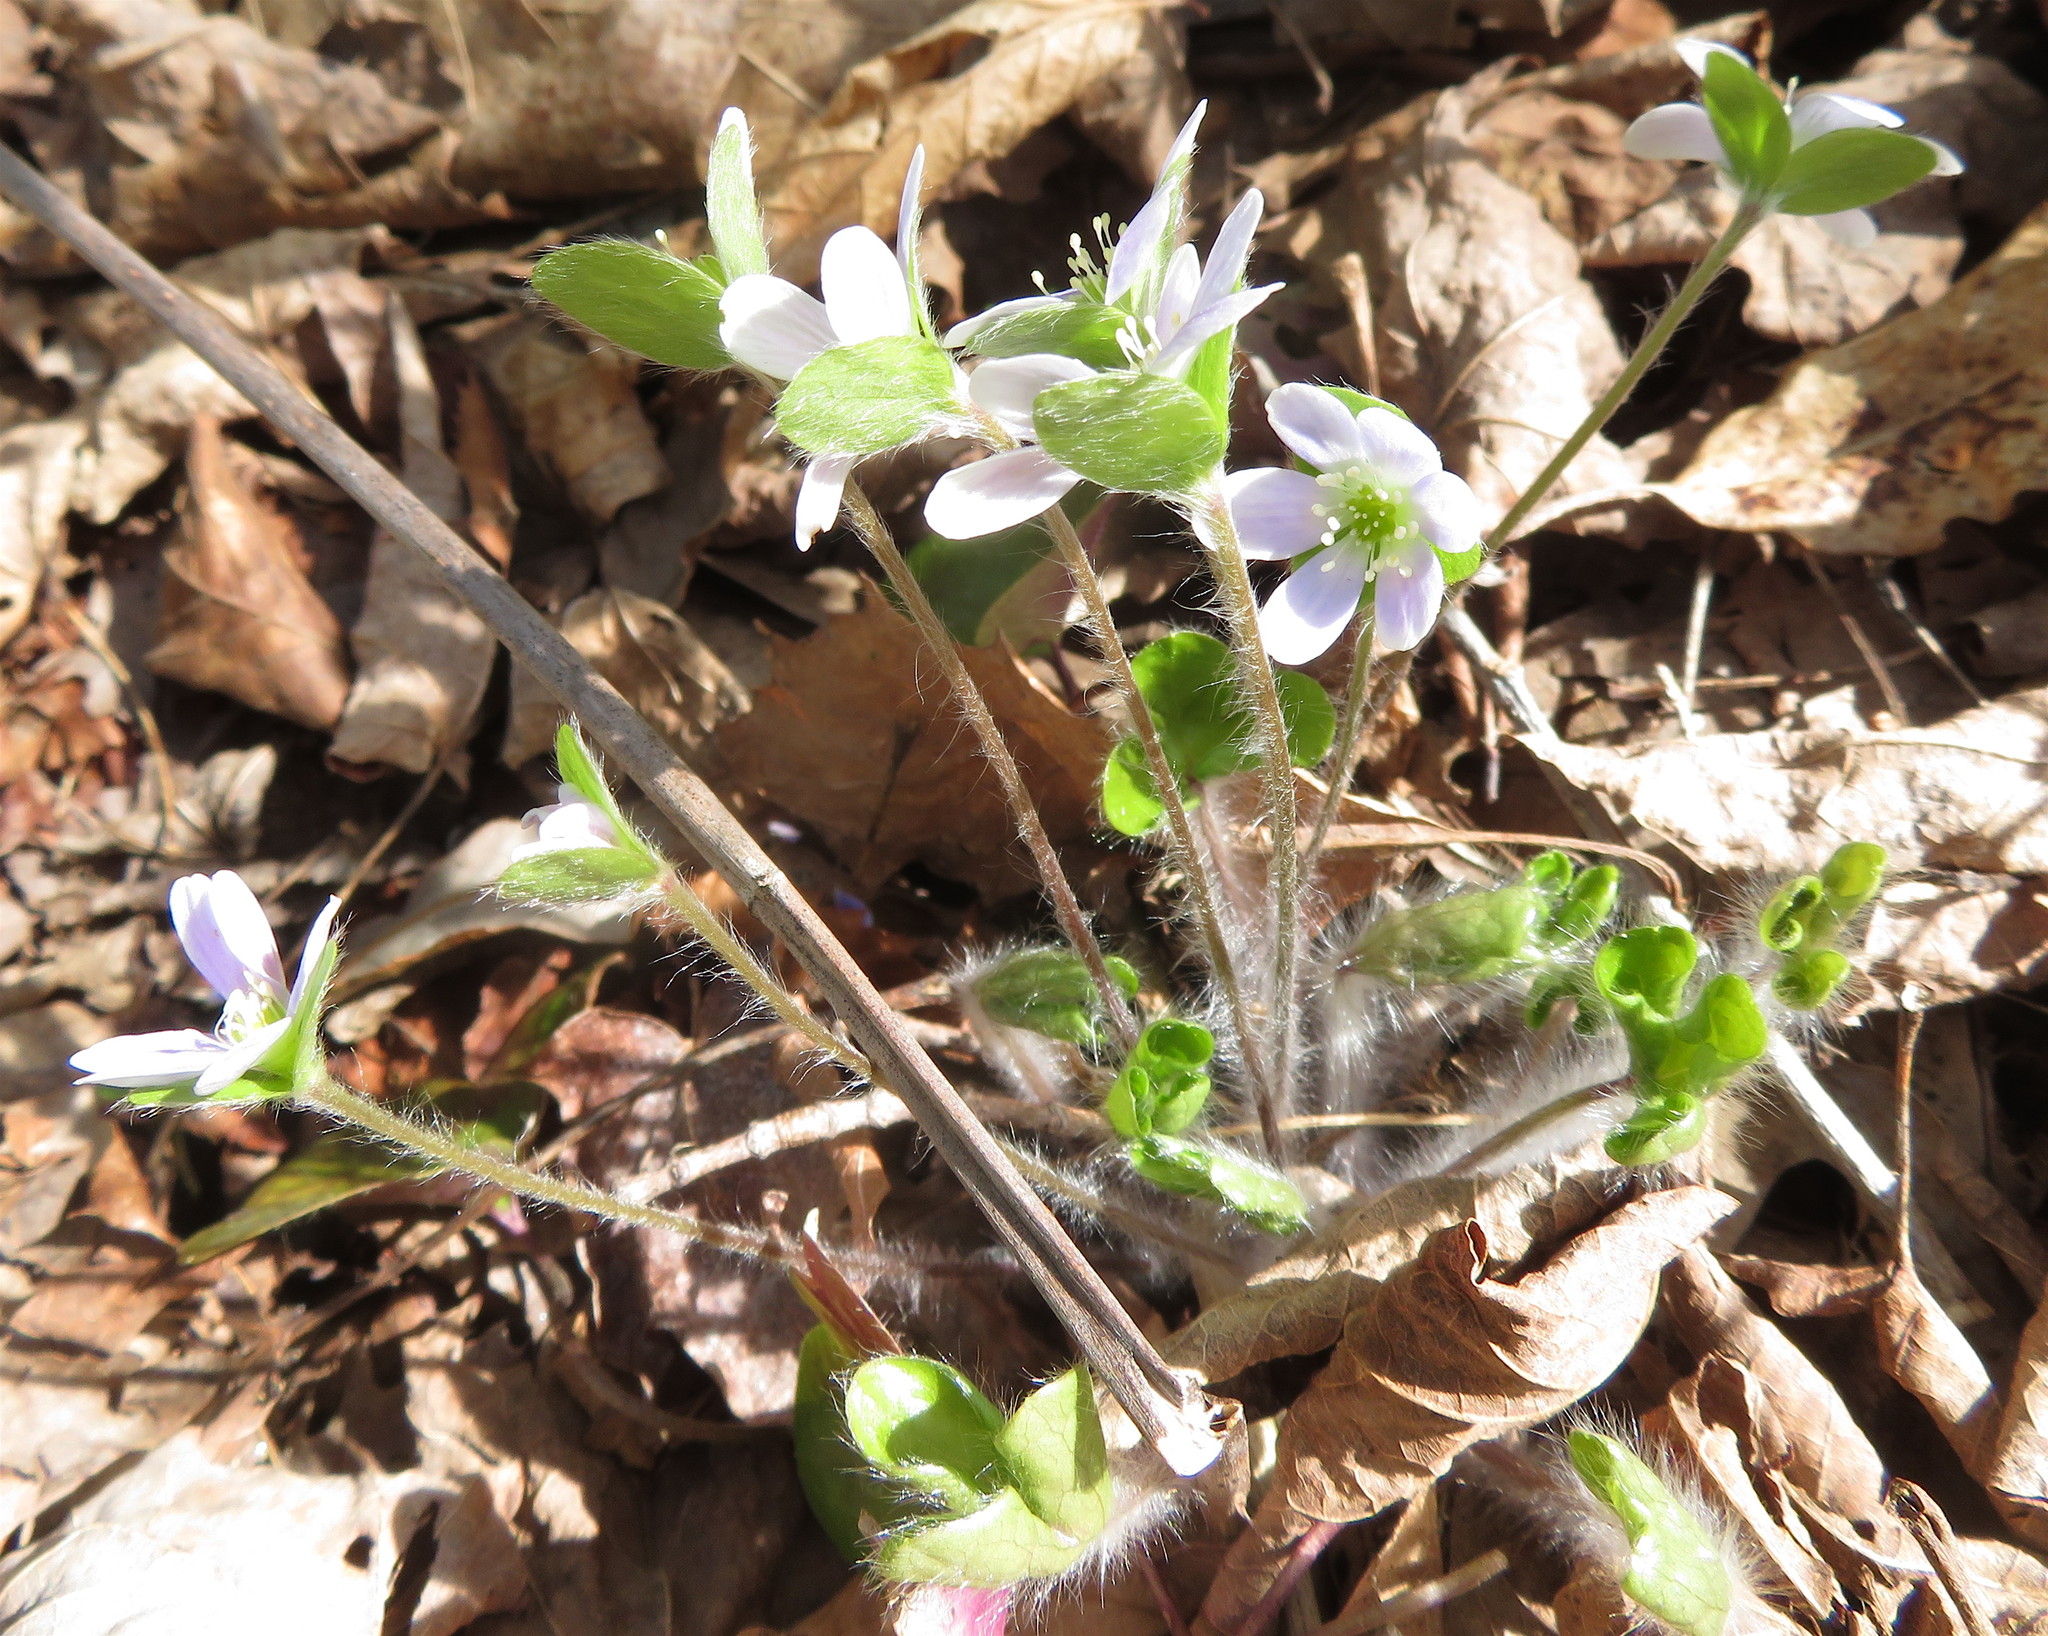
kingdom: Plantae
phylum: Tracheophyta
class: Magnoliopsida
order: Ranunculales
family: Ranunculaceae
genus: Hepatica
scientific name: Hepatica americana
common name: American hepatica
